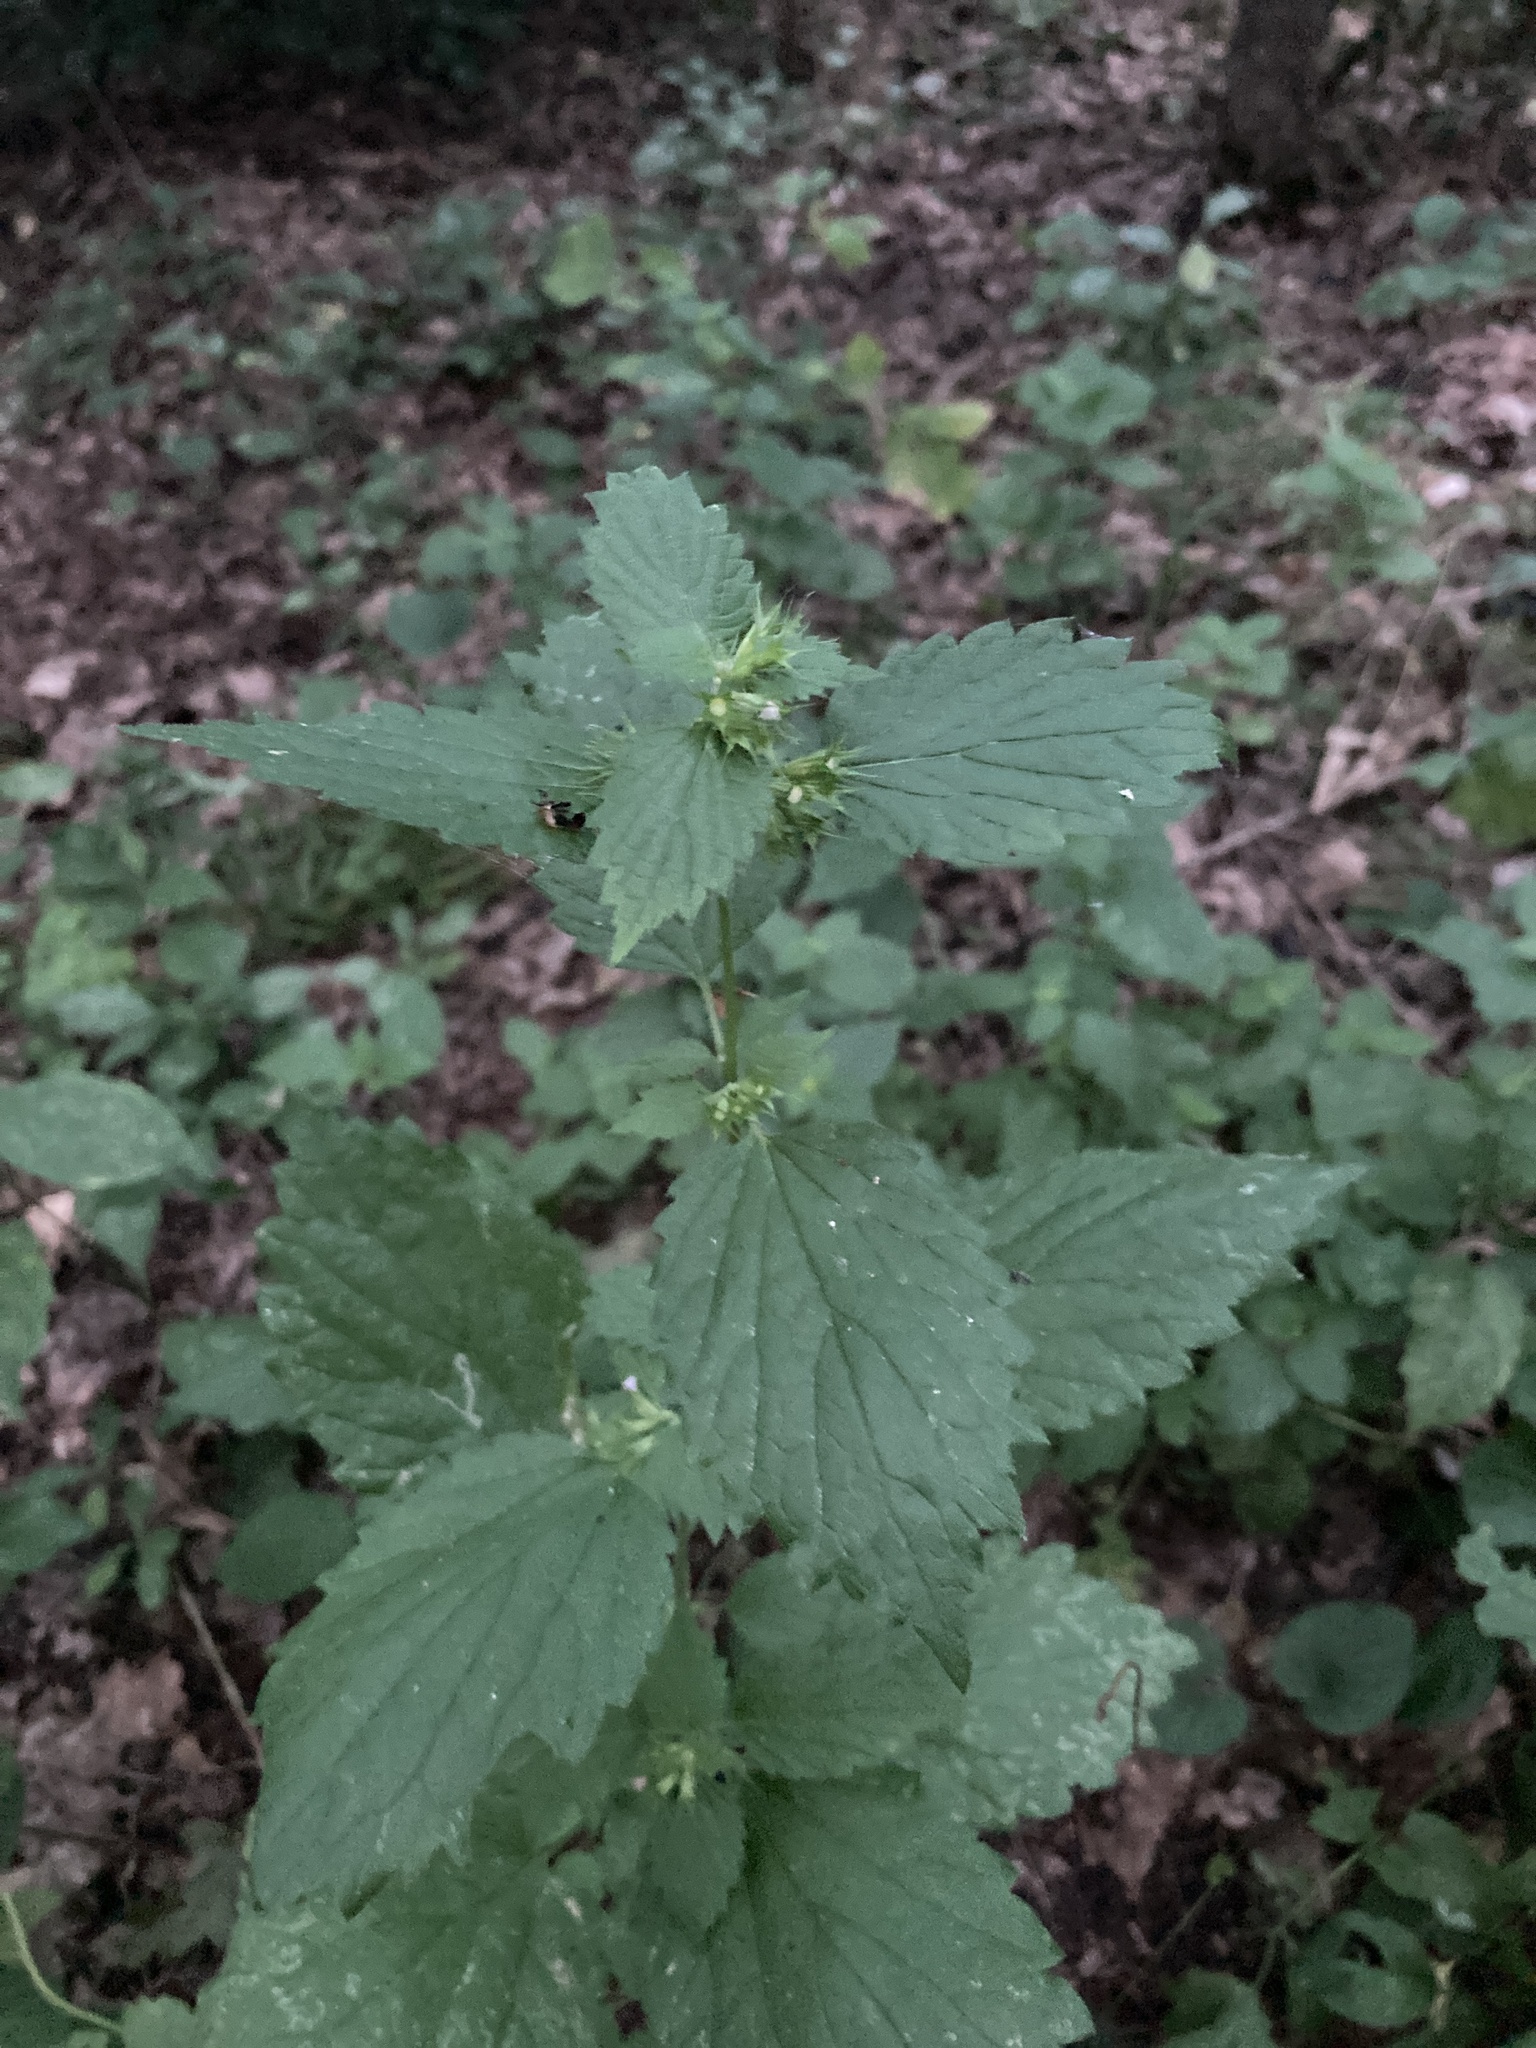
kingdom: Plantae
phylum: Tracheophyta
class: Magnoliopsida
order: Lamiales
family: Lamiaceae
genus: Ballota
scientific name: Ballota nigra
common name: Black horehound
